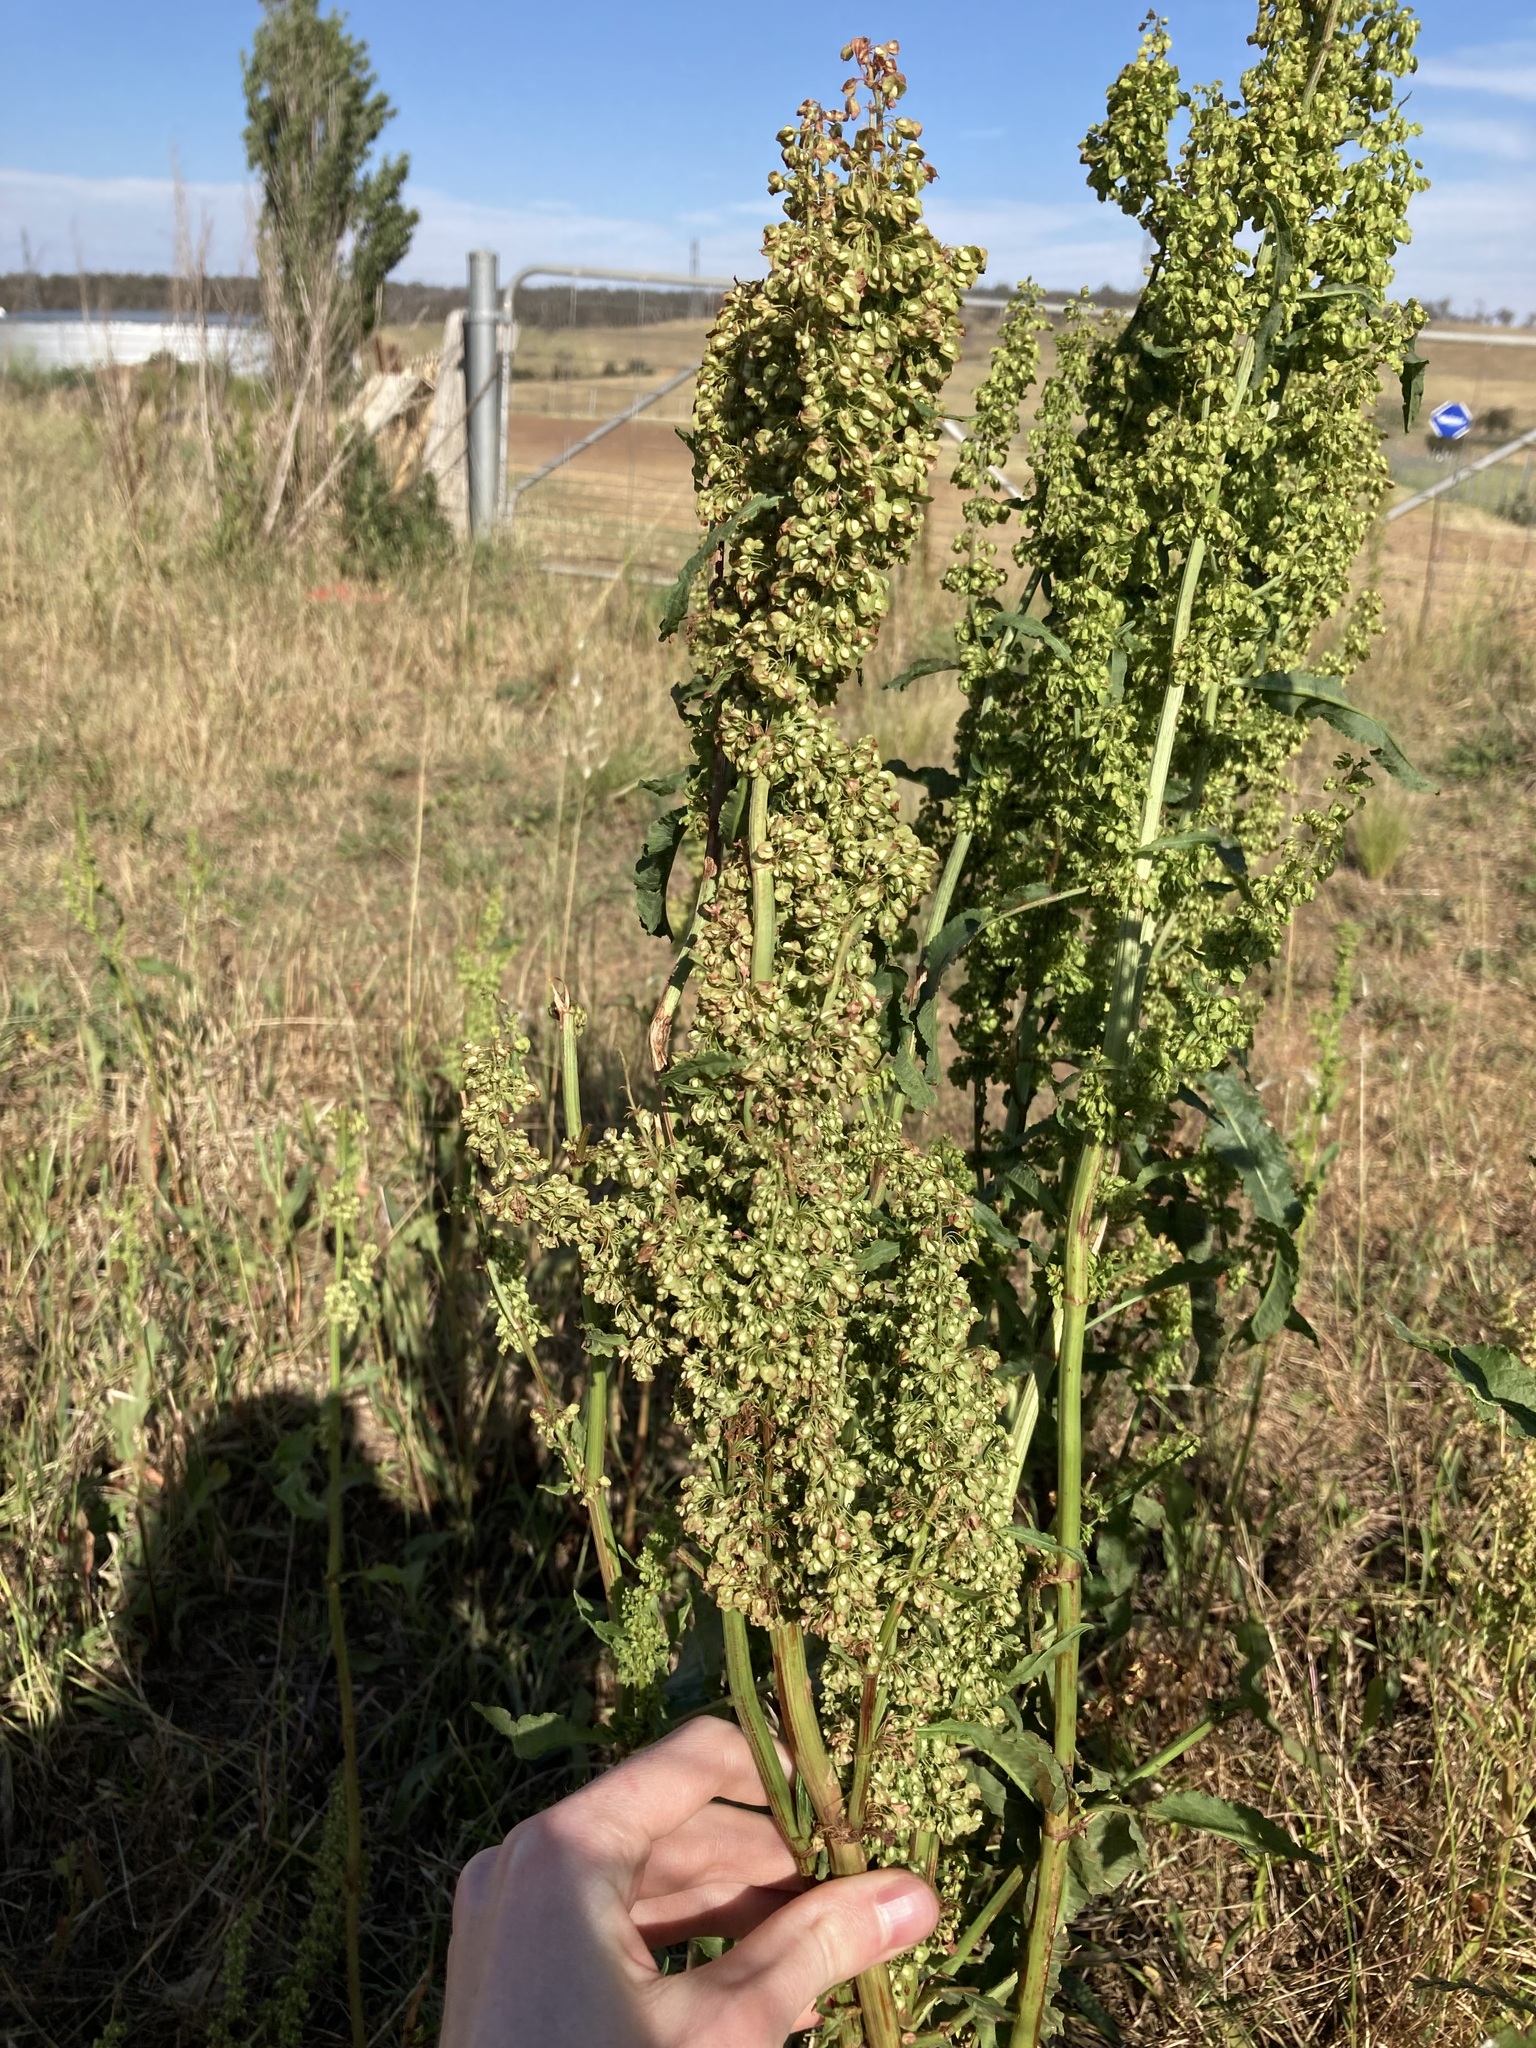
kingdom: Plantae
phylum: Tracheophyta
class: Magnoliopsida
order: Caryophyllales
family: Polygonaceae
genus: Rumex
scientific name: Rumex crispus
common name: Curled dock
